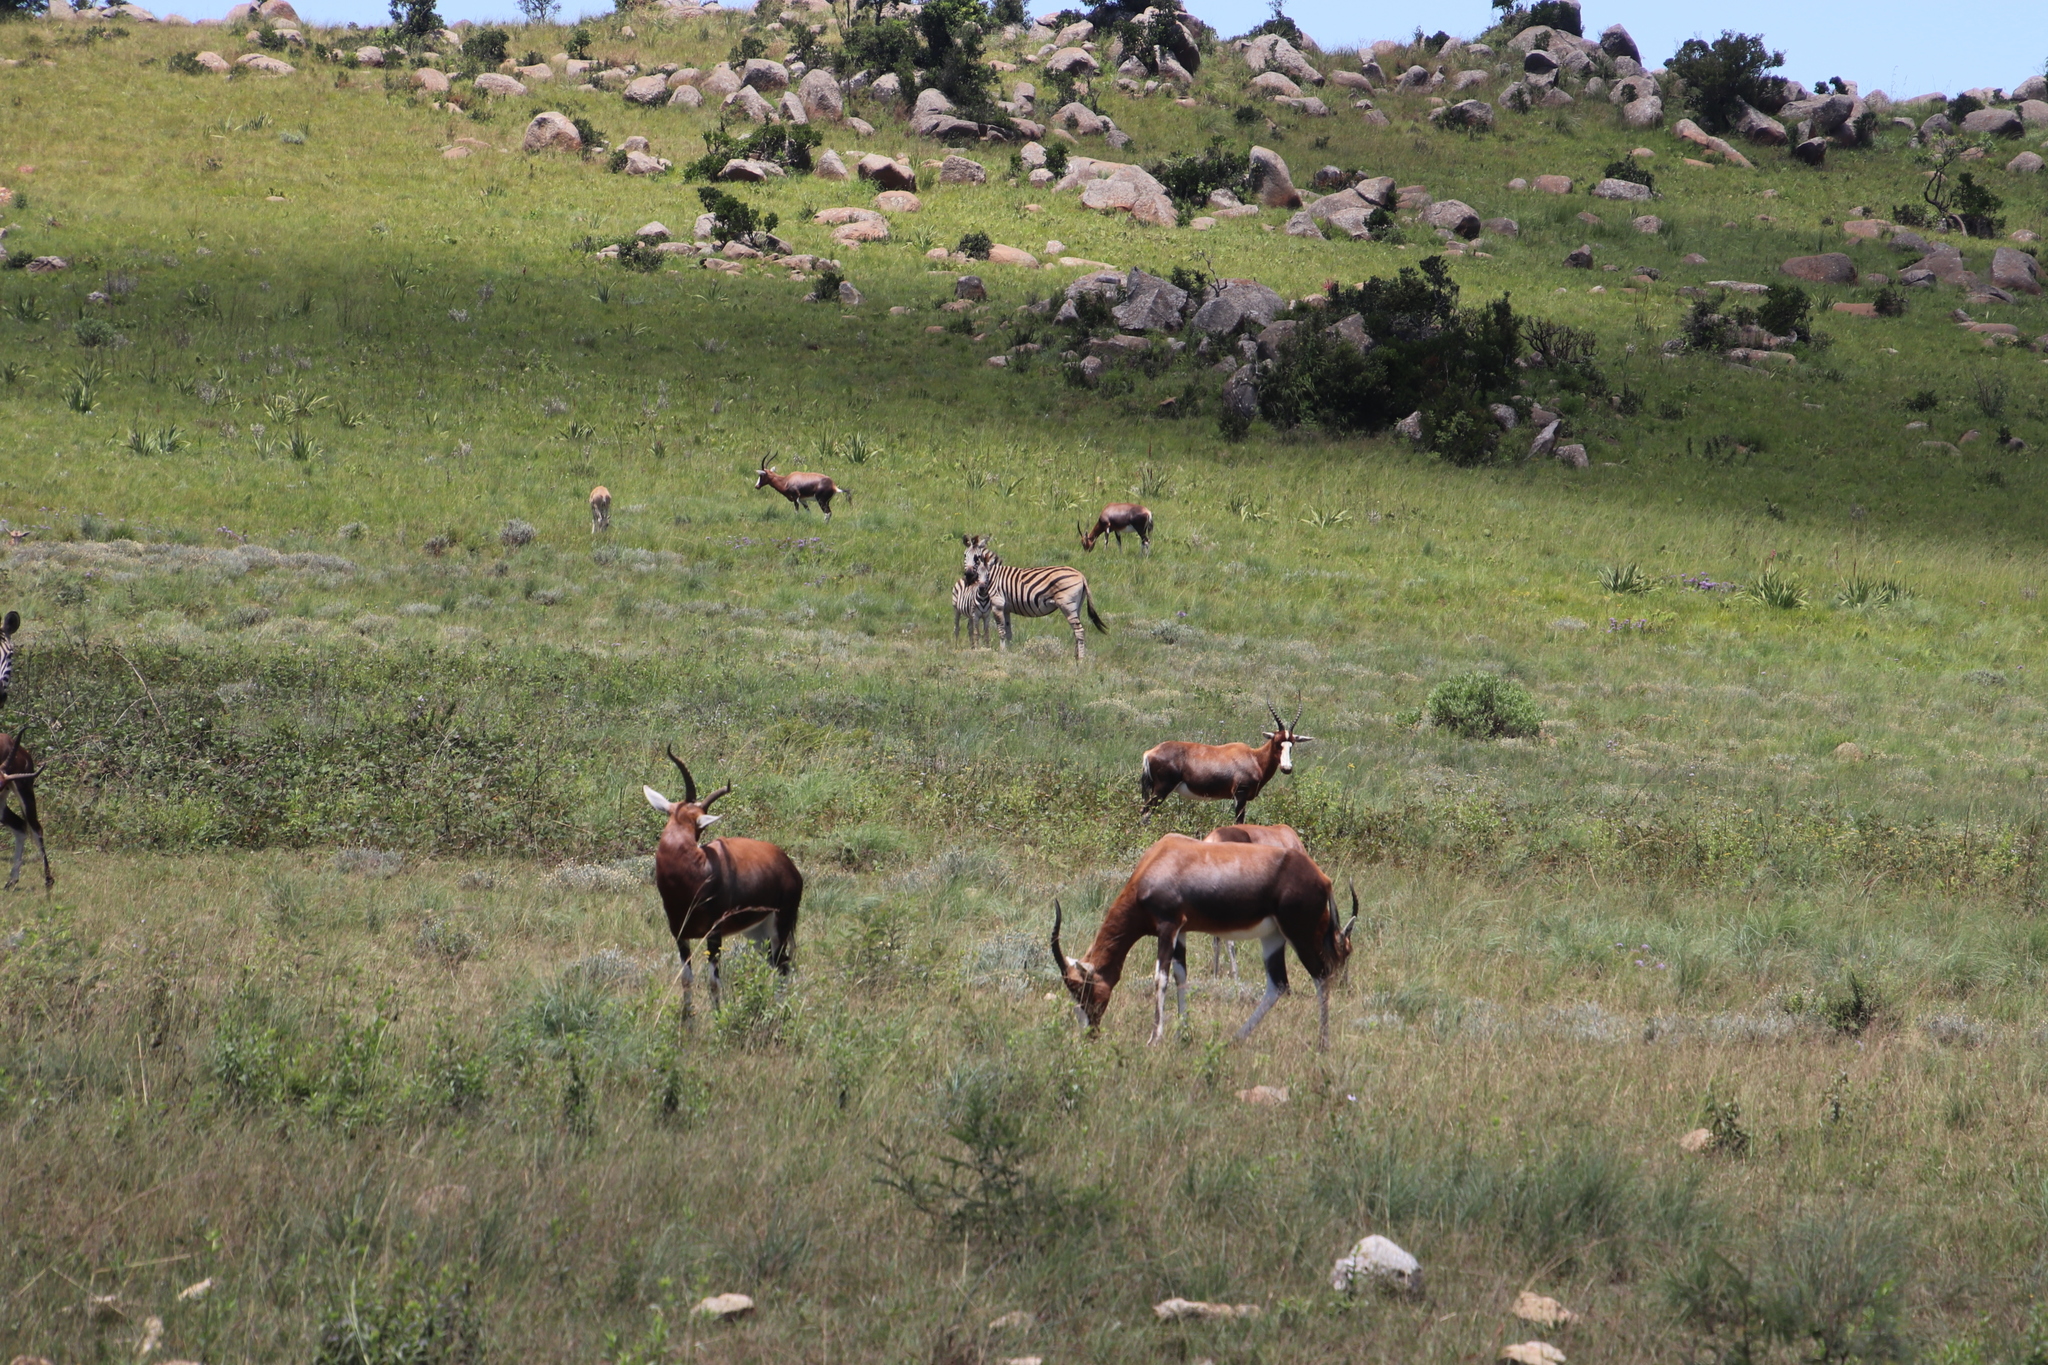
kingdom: Animalia
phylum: Chordata
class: Mammalia
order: Artiodactyla
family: Bovidae
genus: Damaliscus
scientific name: Damaliscus pygargus
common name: Bontebok
